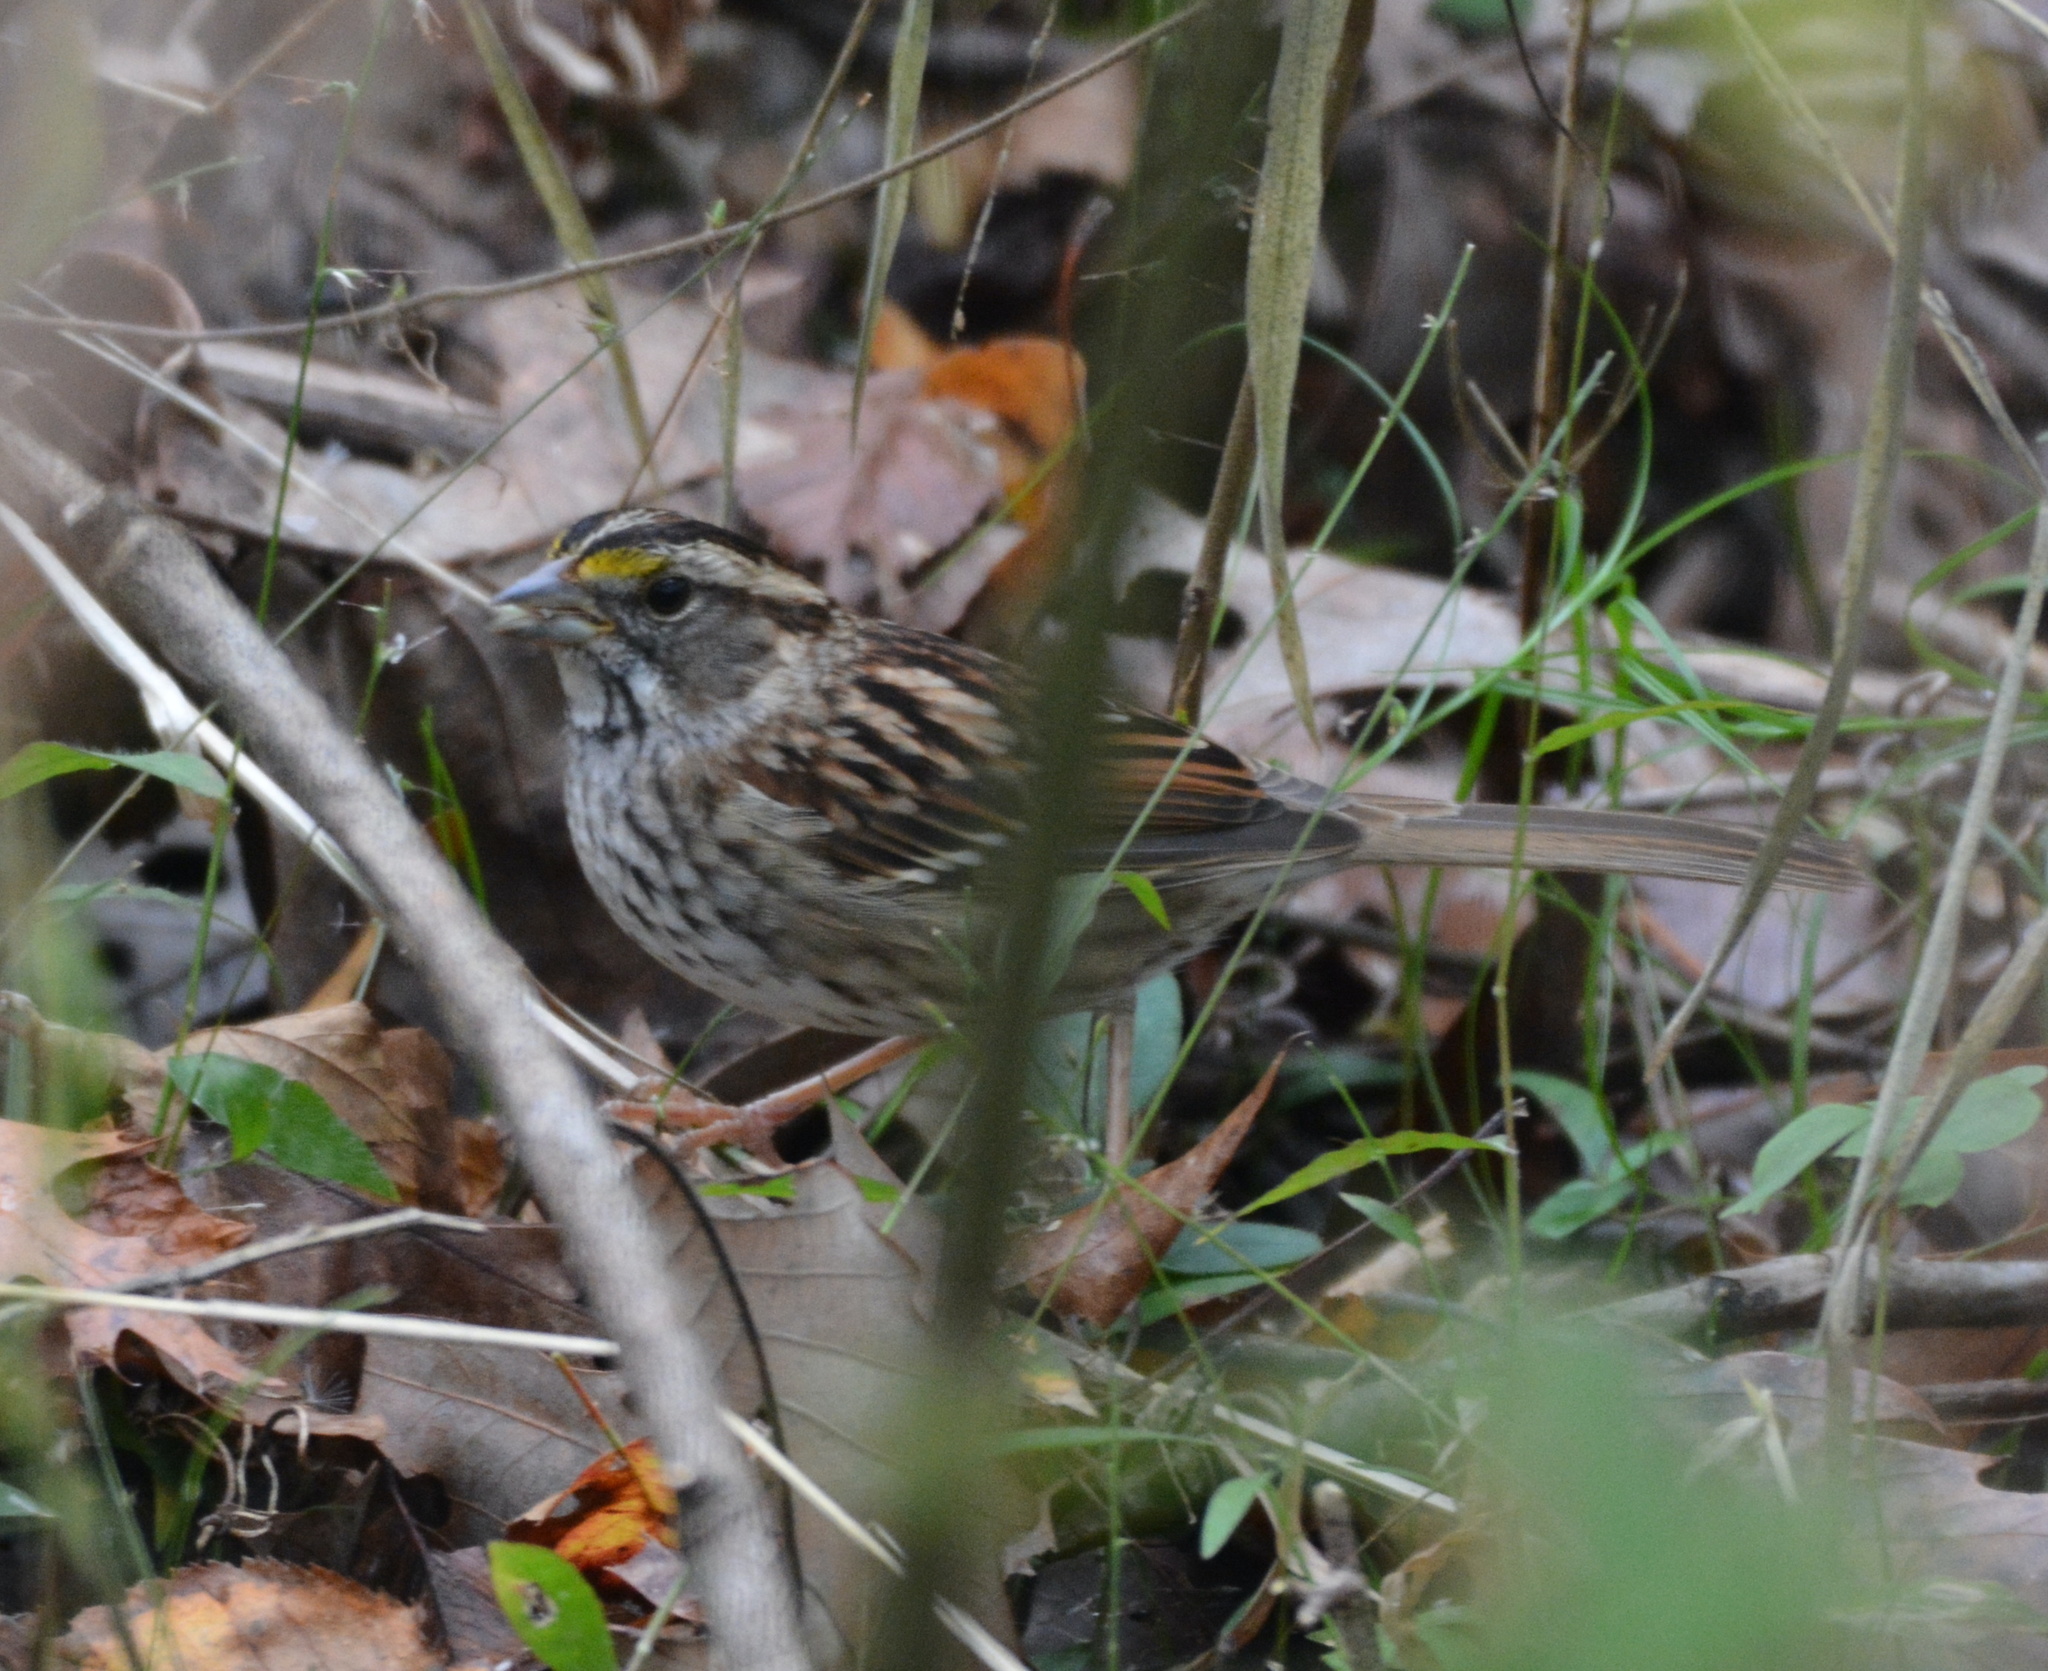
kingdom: Animalia
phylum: Chordata
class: Aves
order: Passeriformes
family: Passerellidae
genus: Zonotrichia
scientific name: Zonotrichia albicollis
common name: White-throated sparrow
